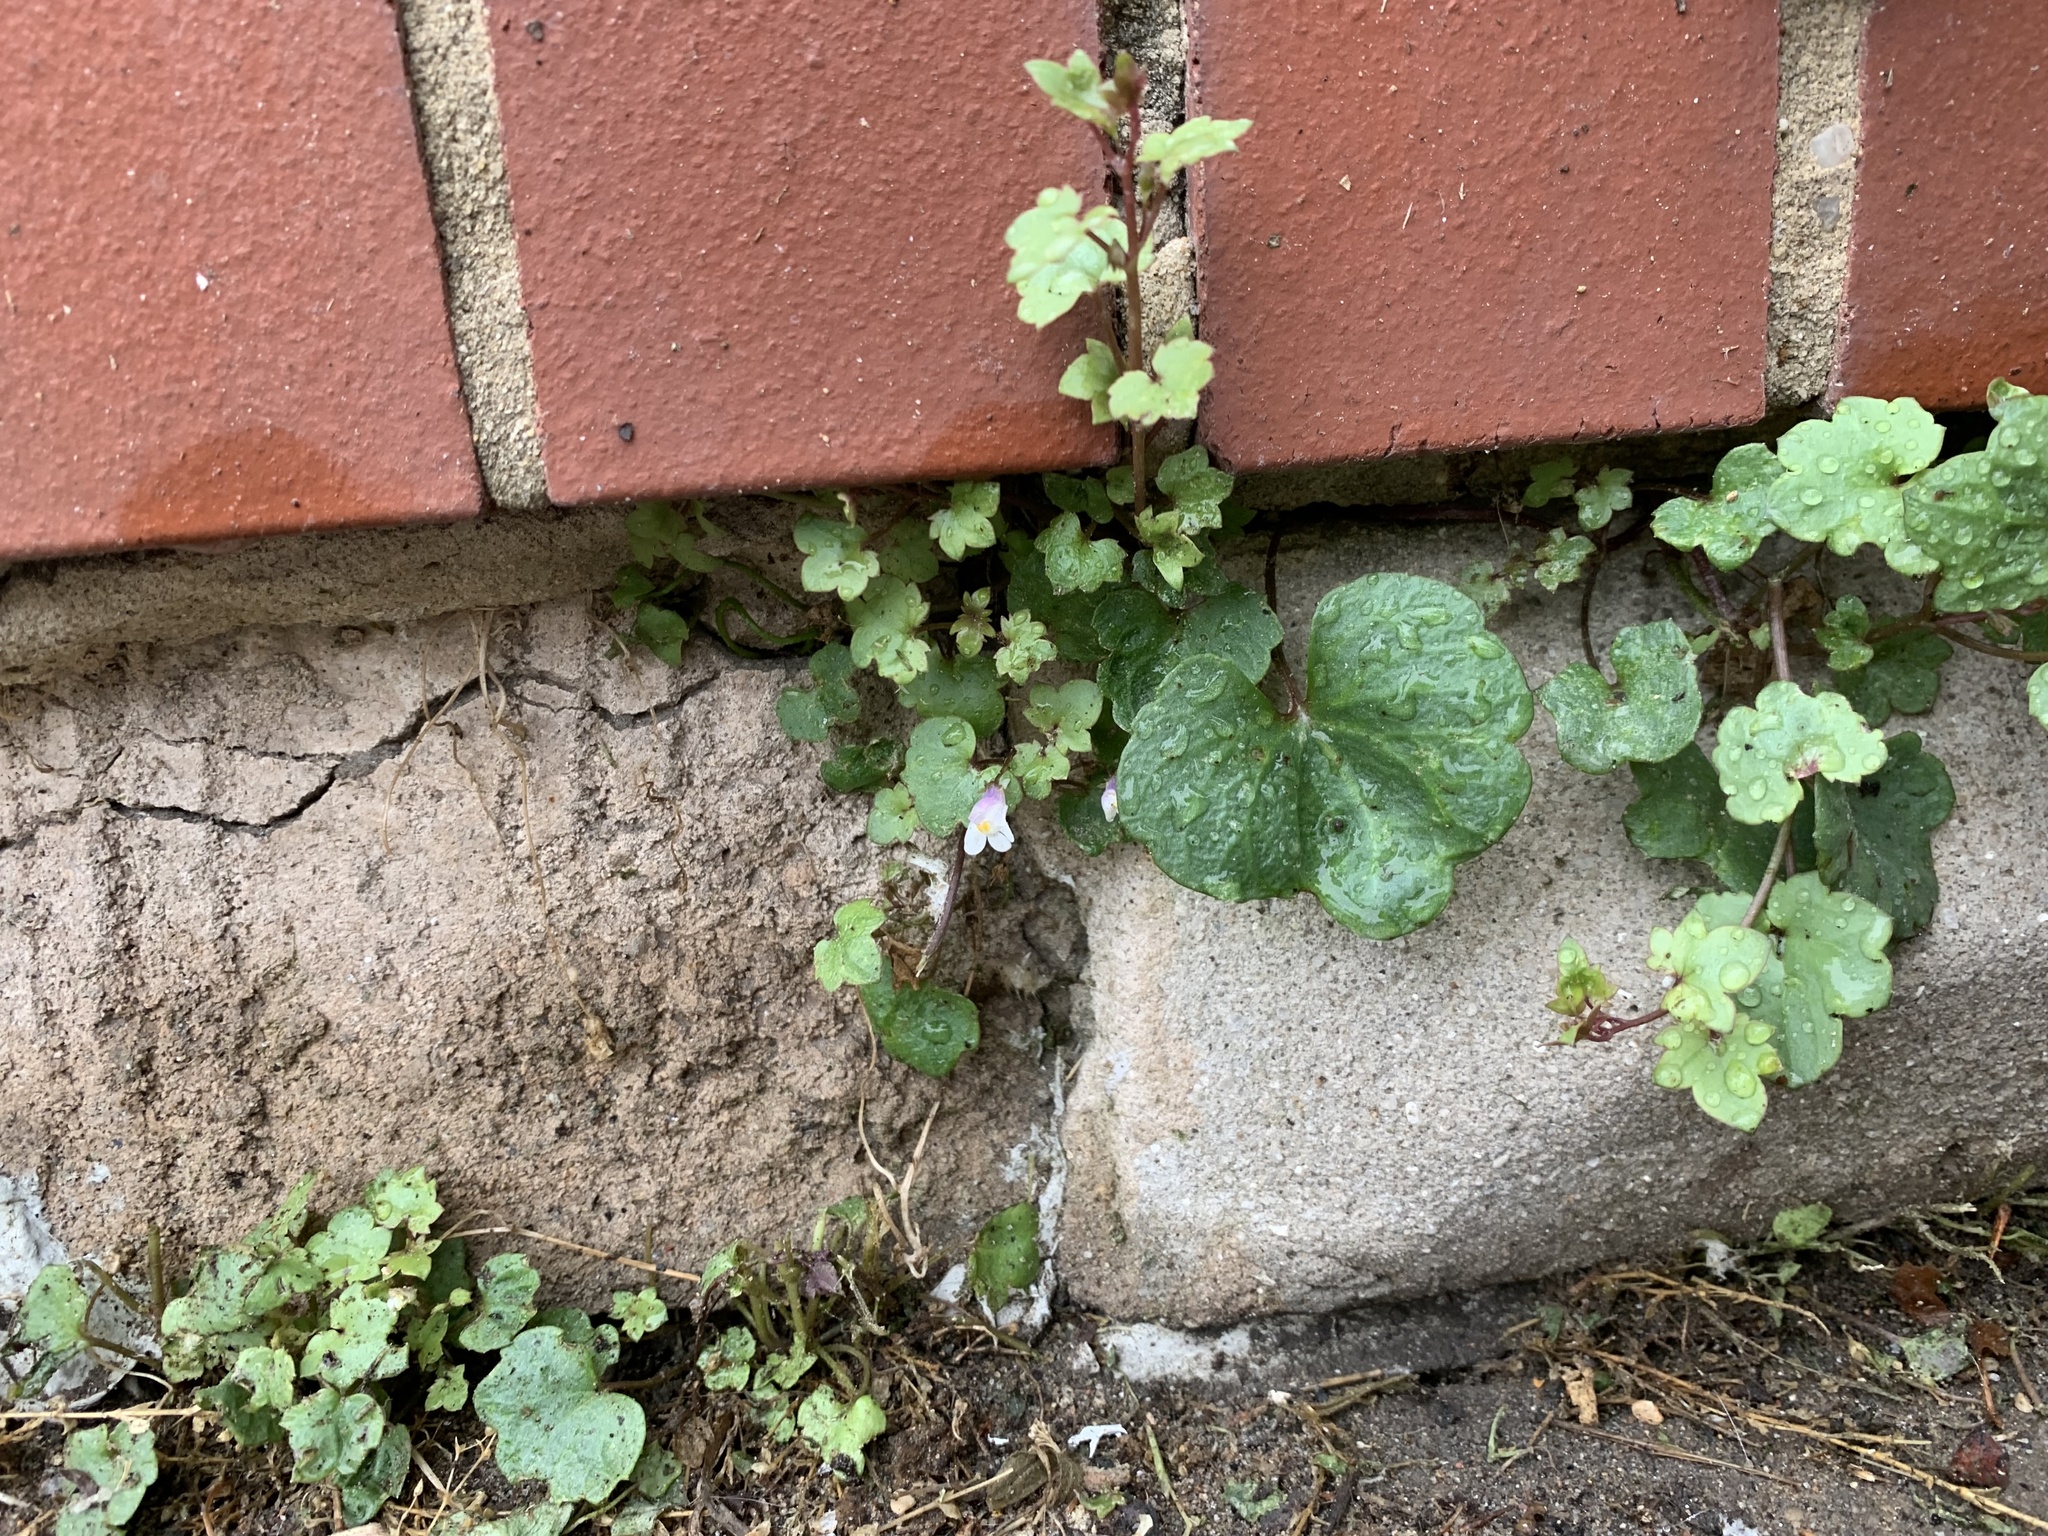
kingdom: Plantae
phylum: Tracheophyta
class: Magnoliopsida
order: Lamiales
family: Plantaginaceae
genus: Cymbalaria
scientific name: Cymbalaria muralis
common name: Ivy-leaved toadflax
